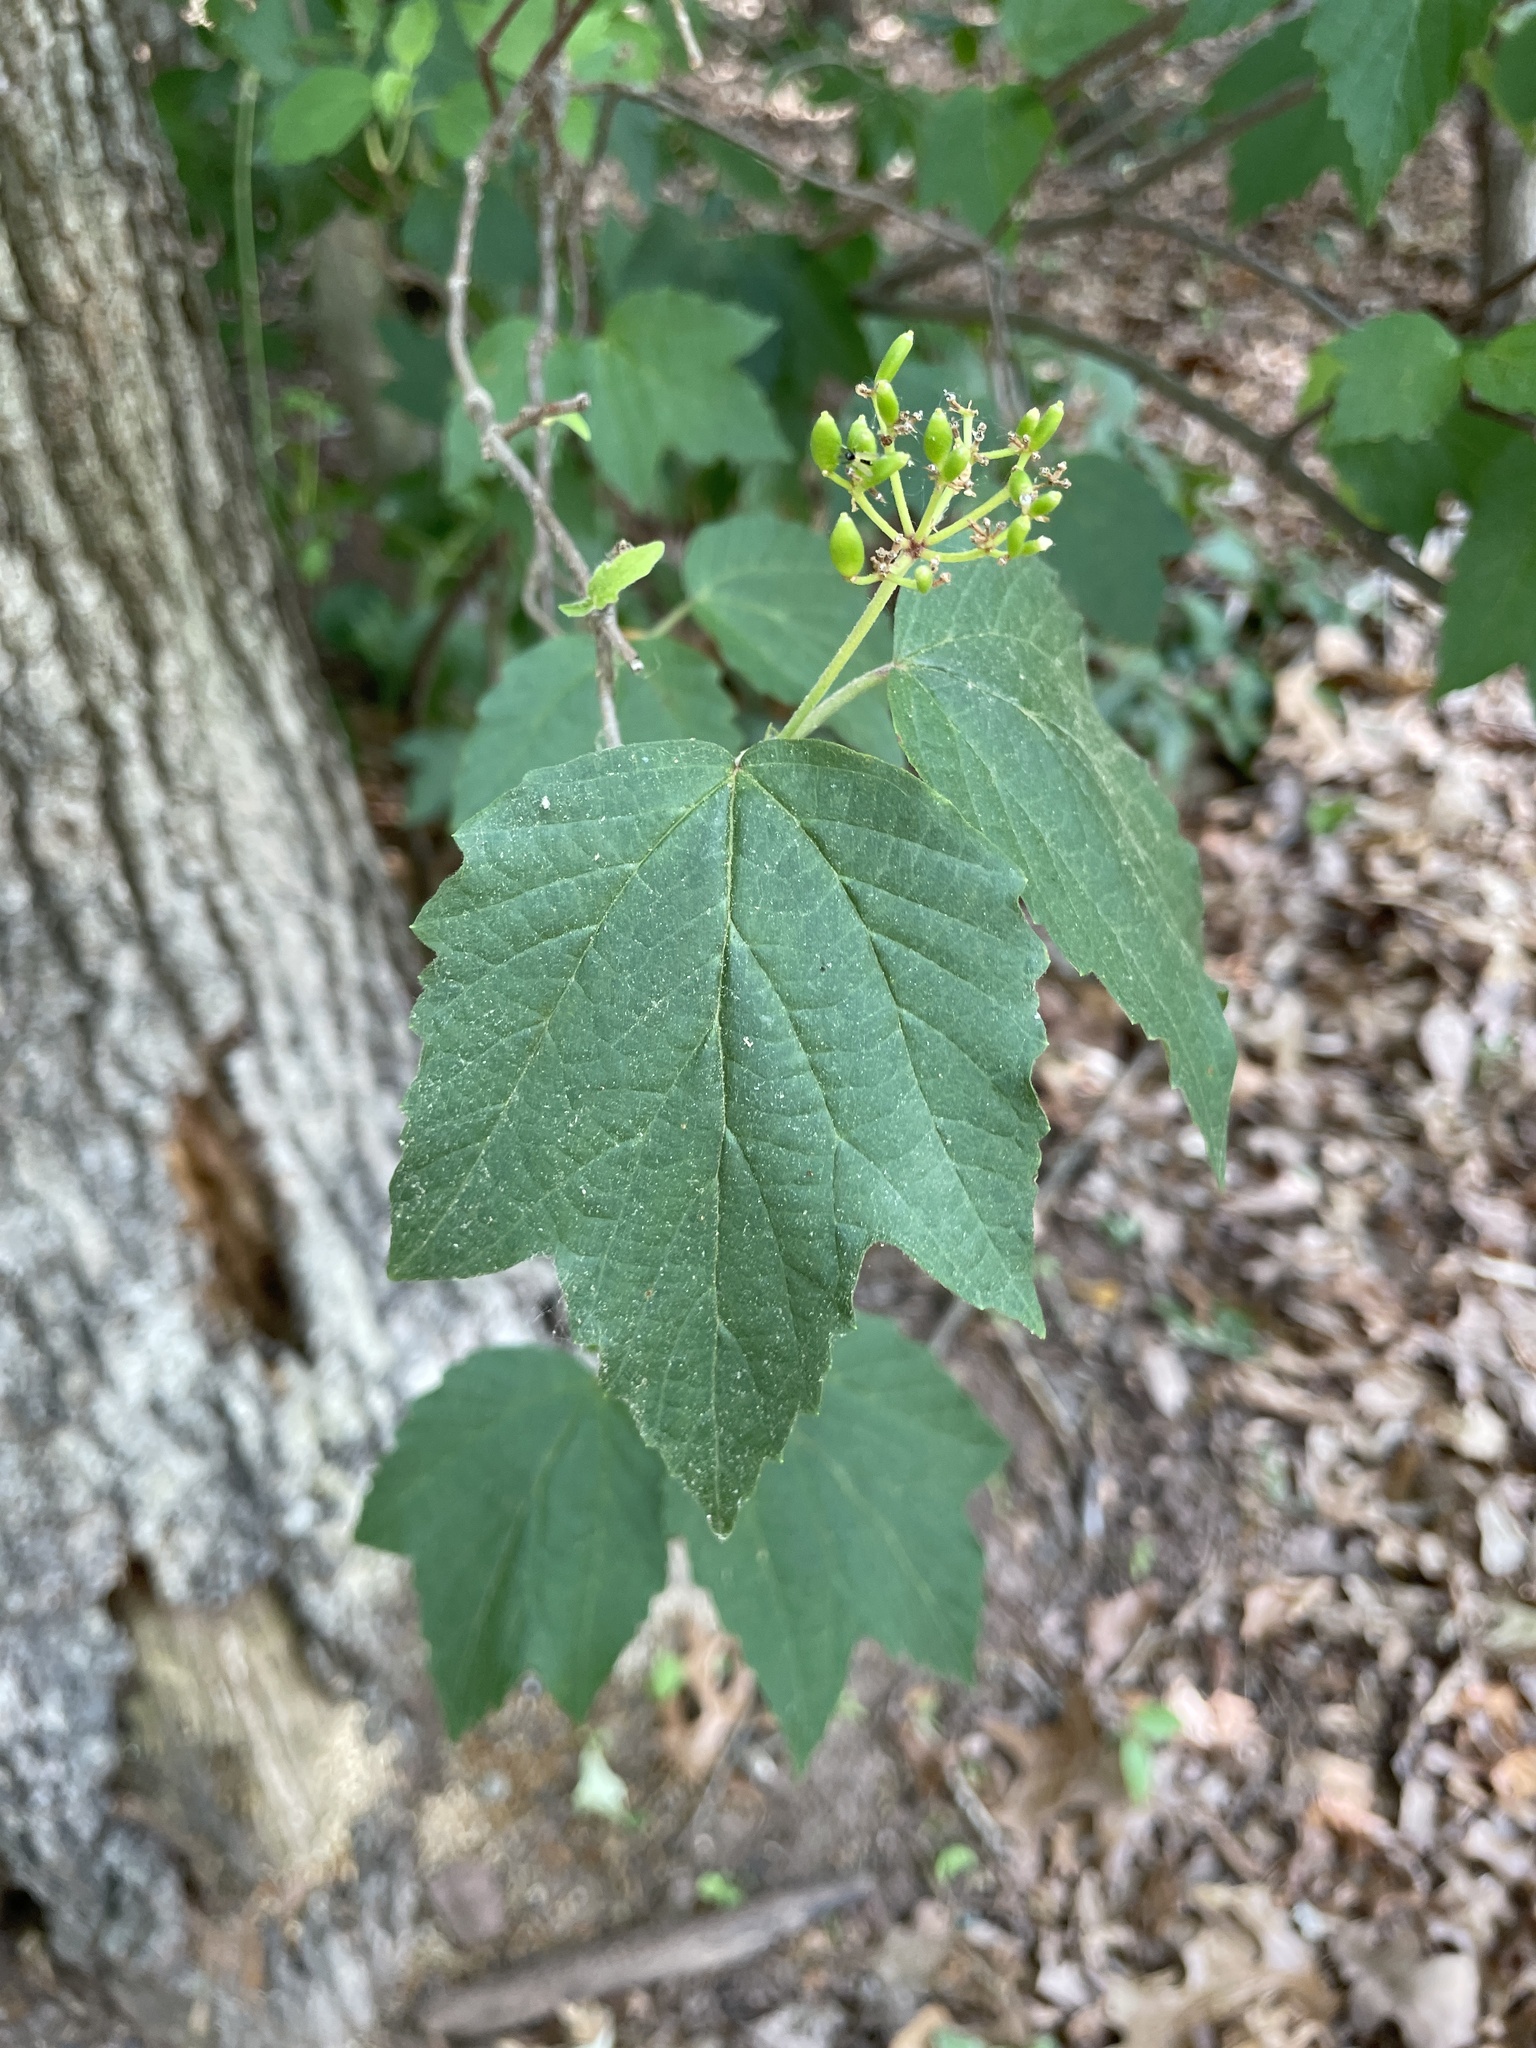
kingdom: Plantae
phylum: Tracheophyta
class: Magnoliopsida
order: Dipsacales
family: Viburnaceae
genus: Viburnum
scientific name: Viburnum acerifolium
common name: Dockmackie
